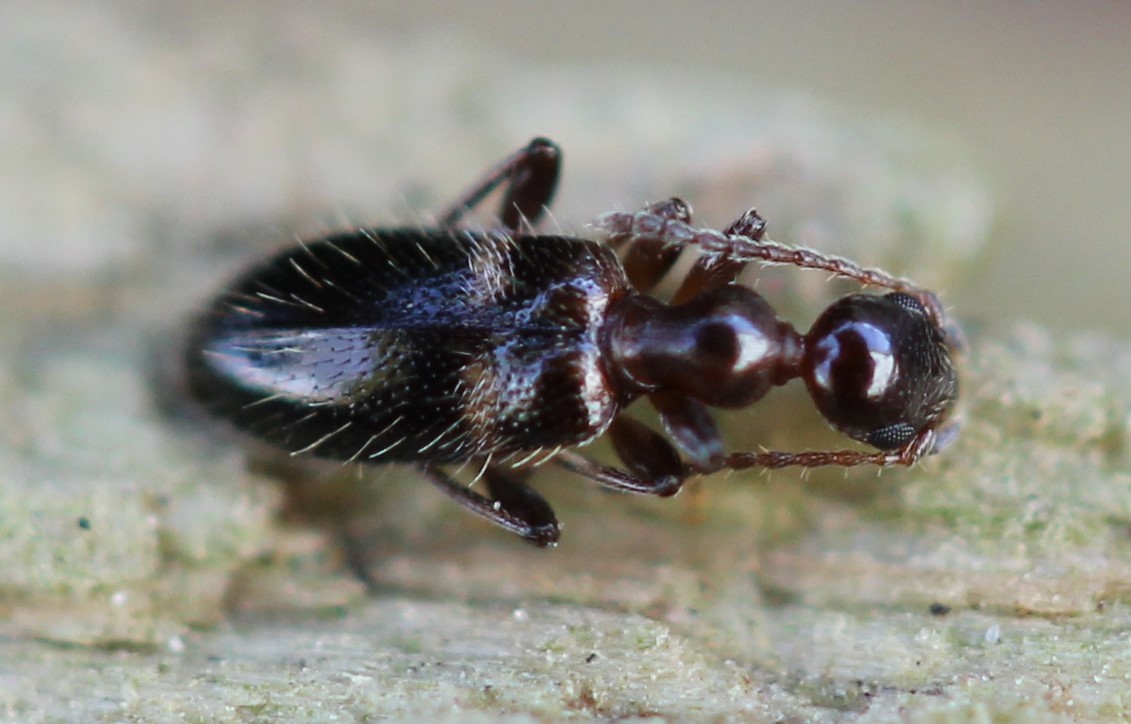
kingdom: Animalia
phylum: Arthropoda
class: Insecta
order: Coleoptera
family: Anthicidae
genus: Malporus
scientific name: Malporus formicarius
